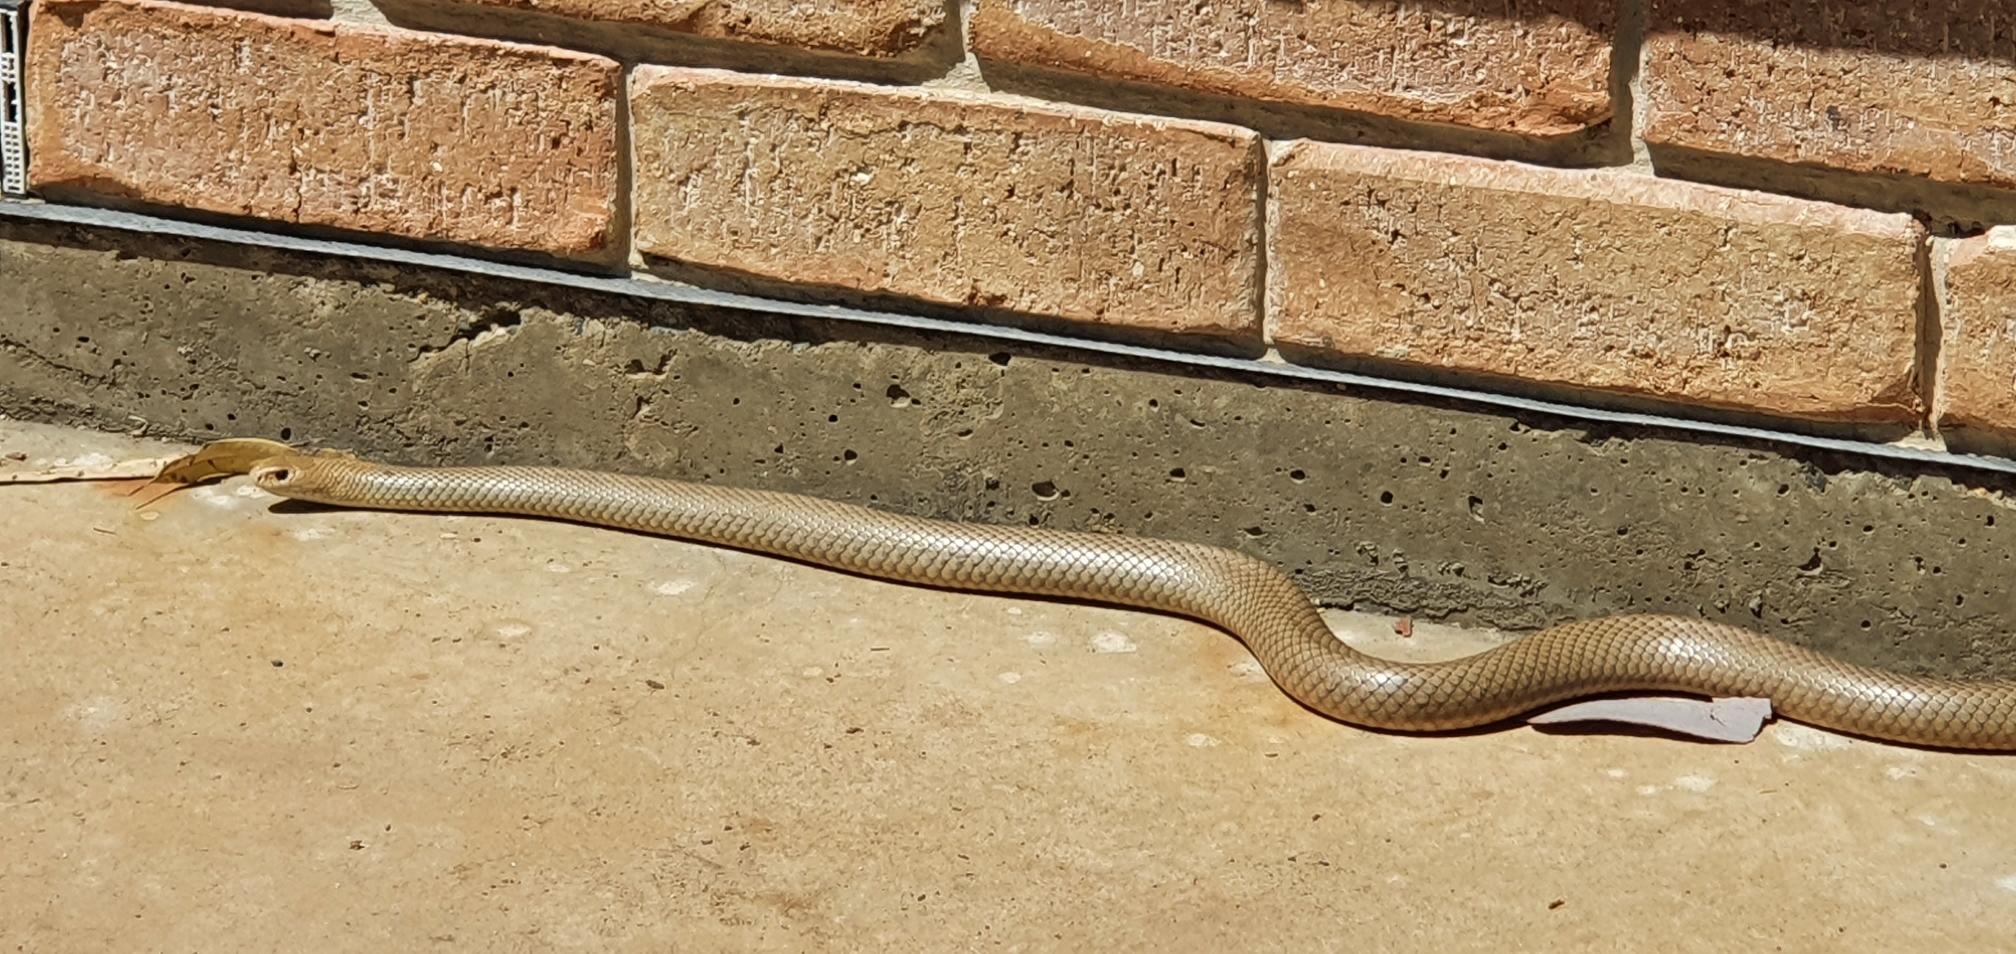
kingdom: Animalia
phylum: Chordata
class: Squamata
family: Elapidae
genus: Pseudonaja
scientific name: Pseudonaja textilis
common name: Eastern brown snake
